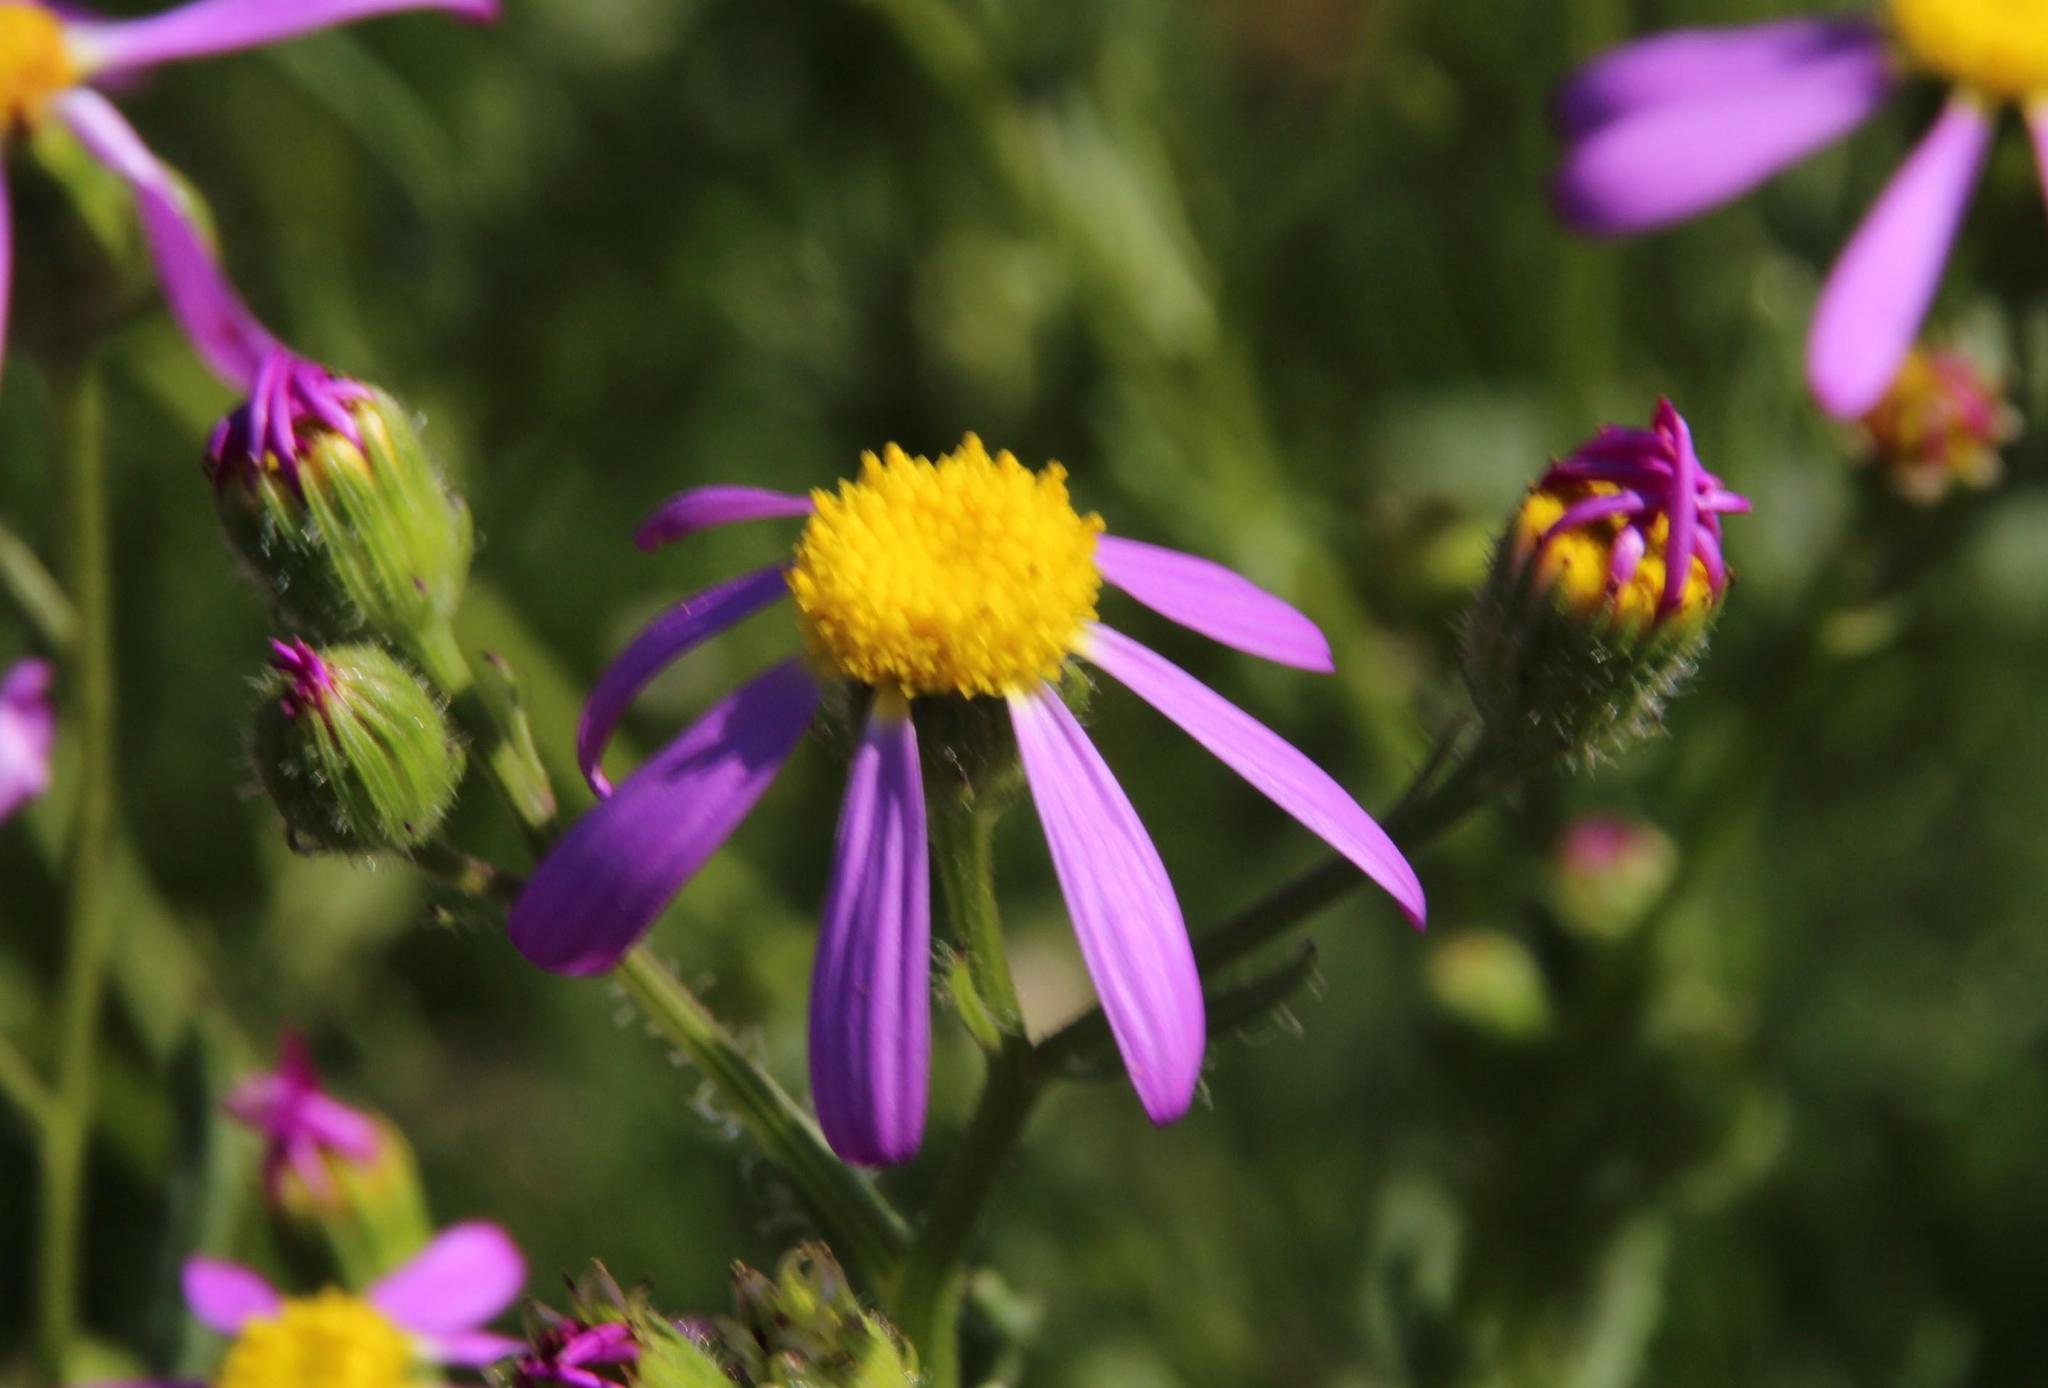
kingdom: Plantae
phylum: Tracheophyta
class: Magnoliopsida
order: Asterales
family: Asteraceae
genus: Senecio
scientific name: Senecio arenarius
